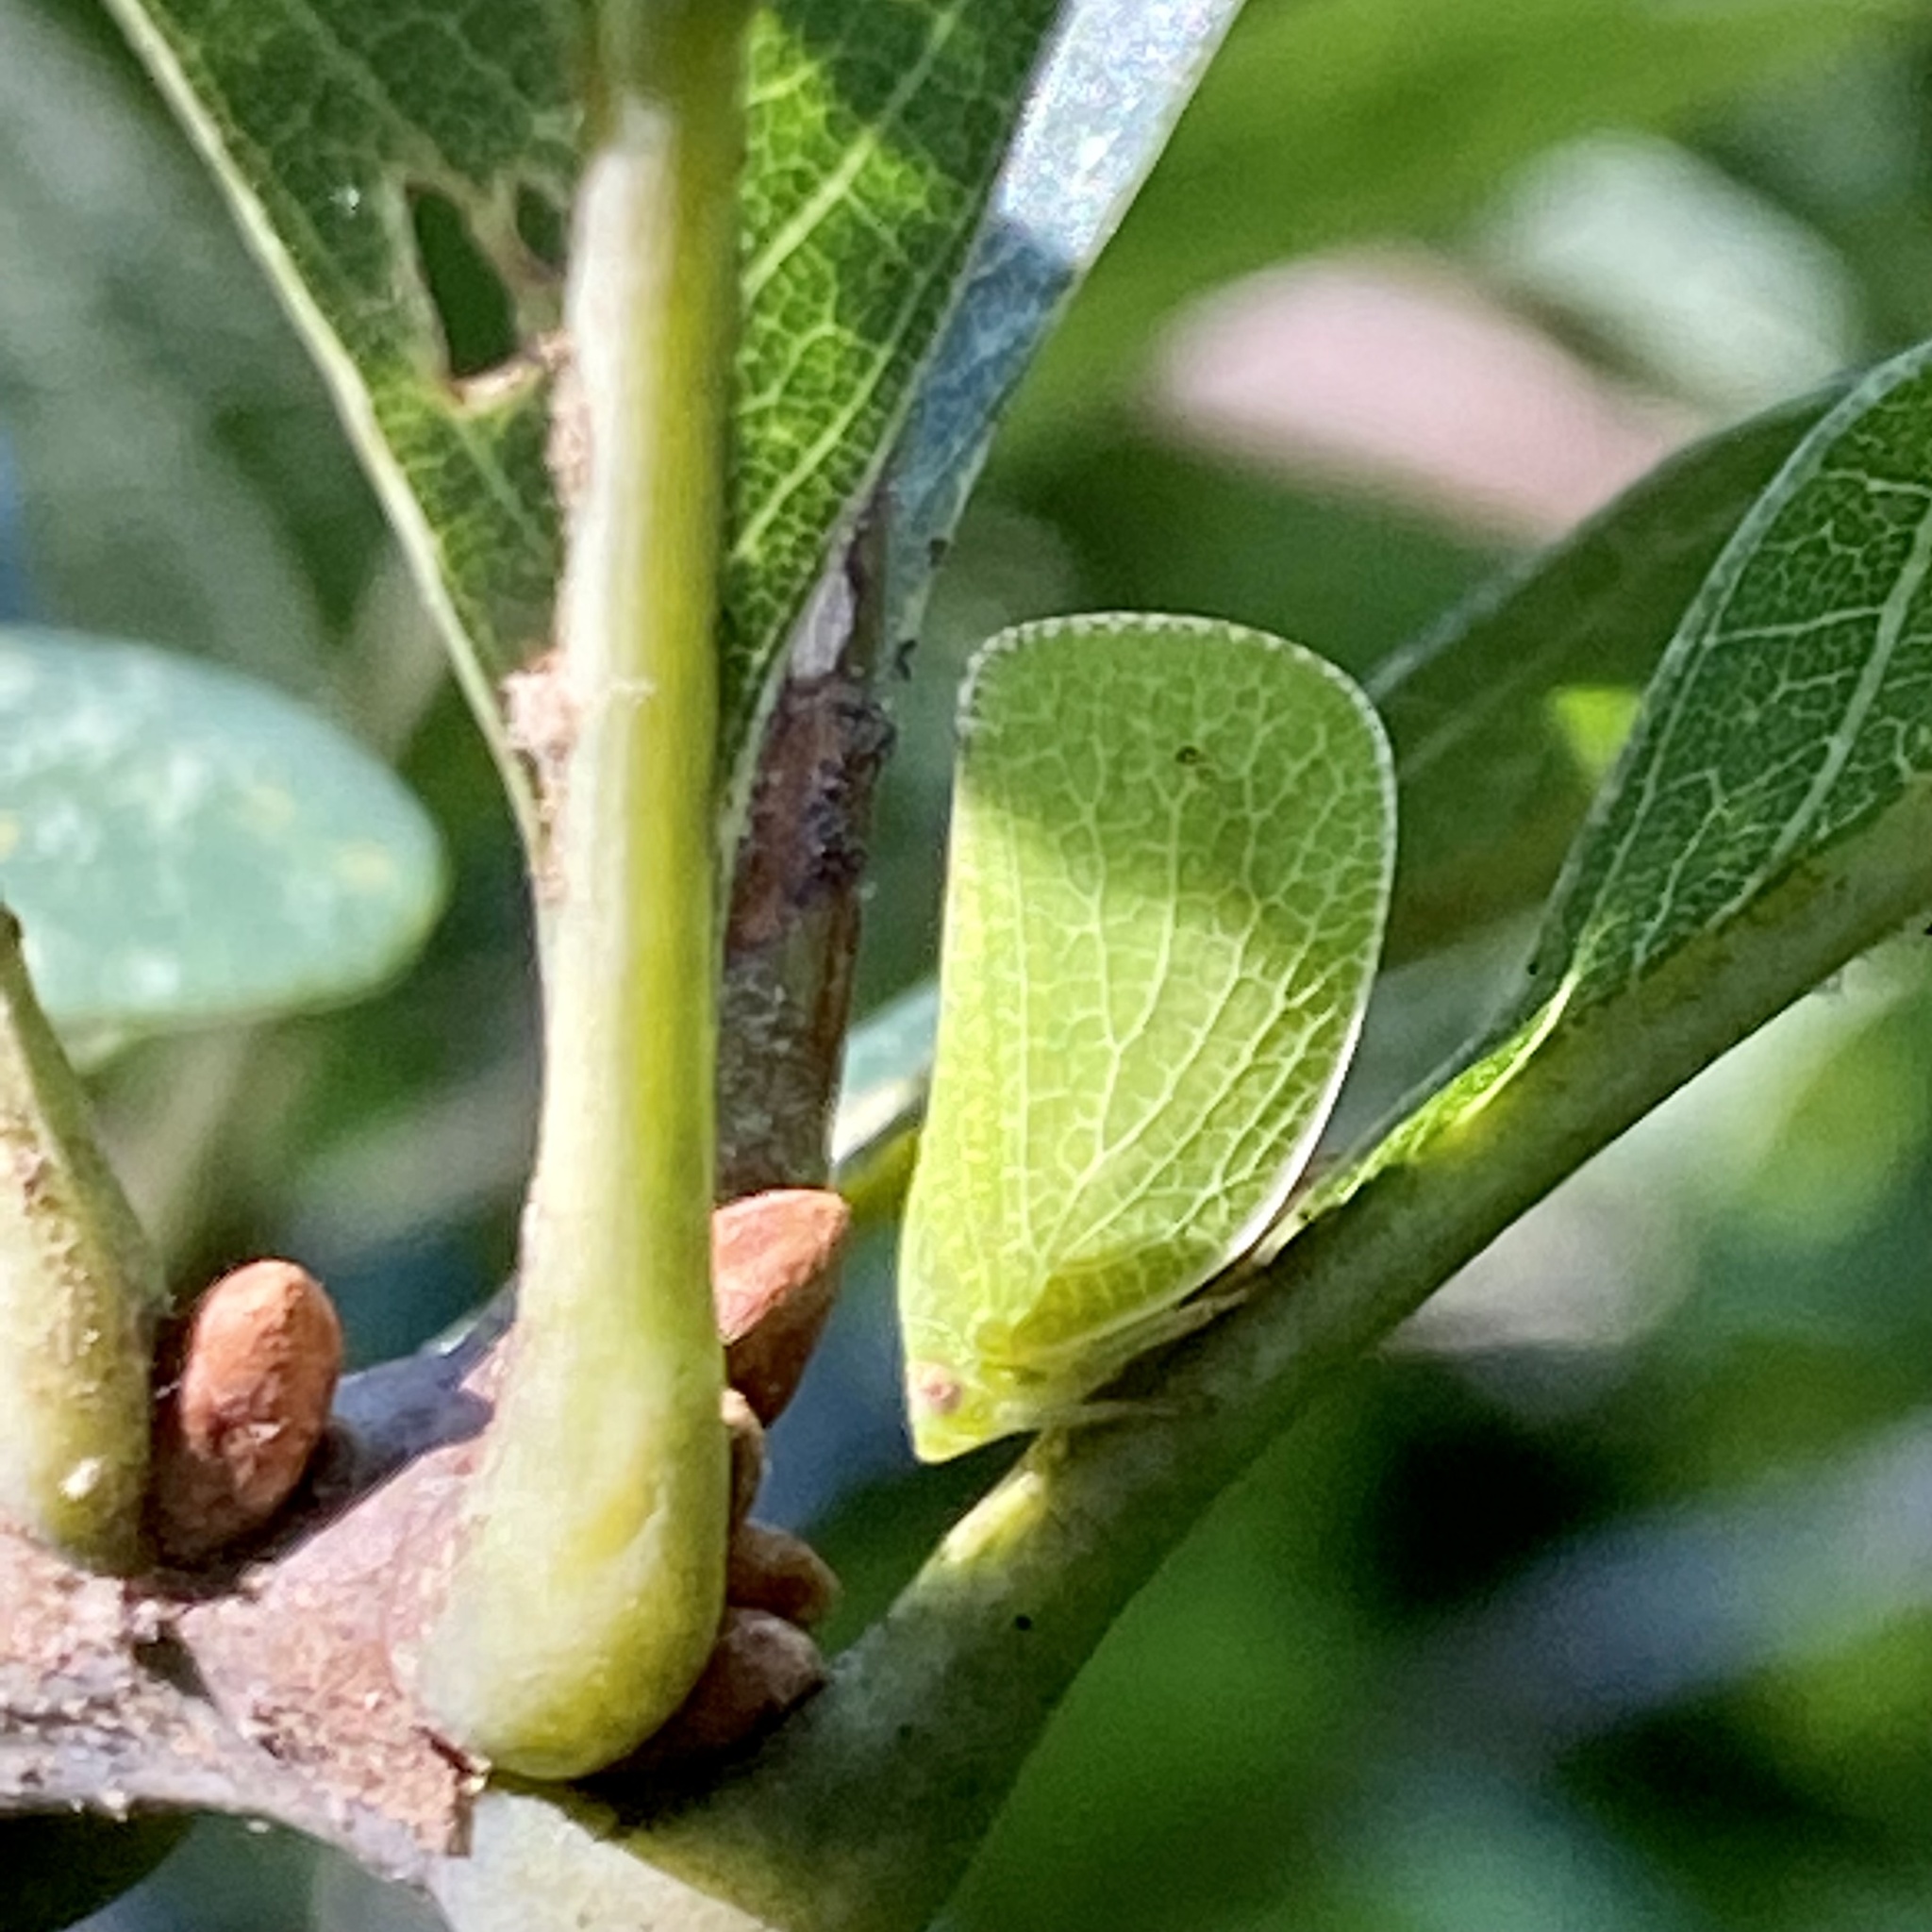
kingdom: Animalia
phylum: Arthropoda
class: Insecta
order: Hemiptera
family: Acanaloniidae
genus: Acanalonia
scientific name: Acanalonia conica
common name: Green cone-headed planthopper
